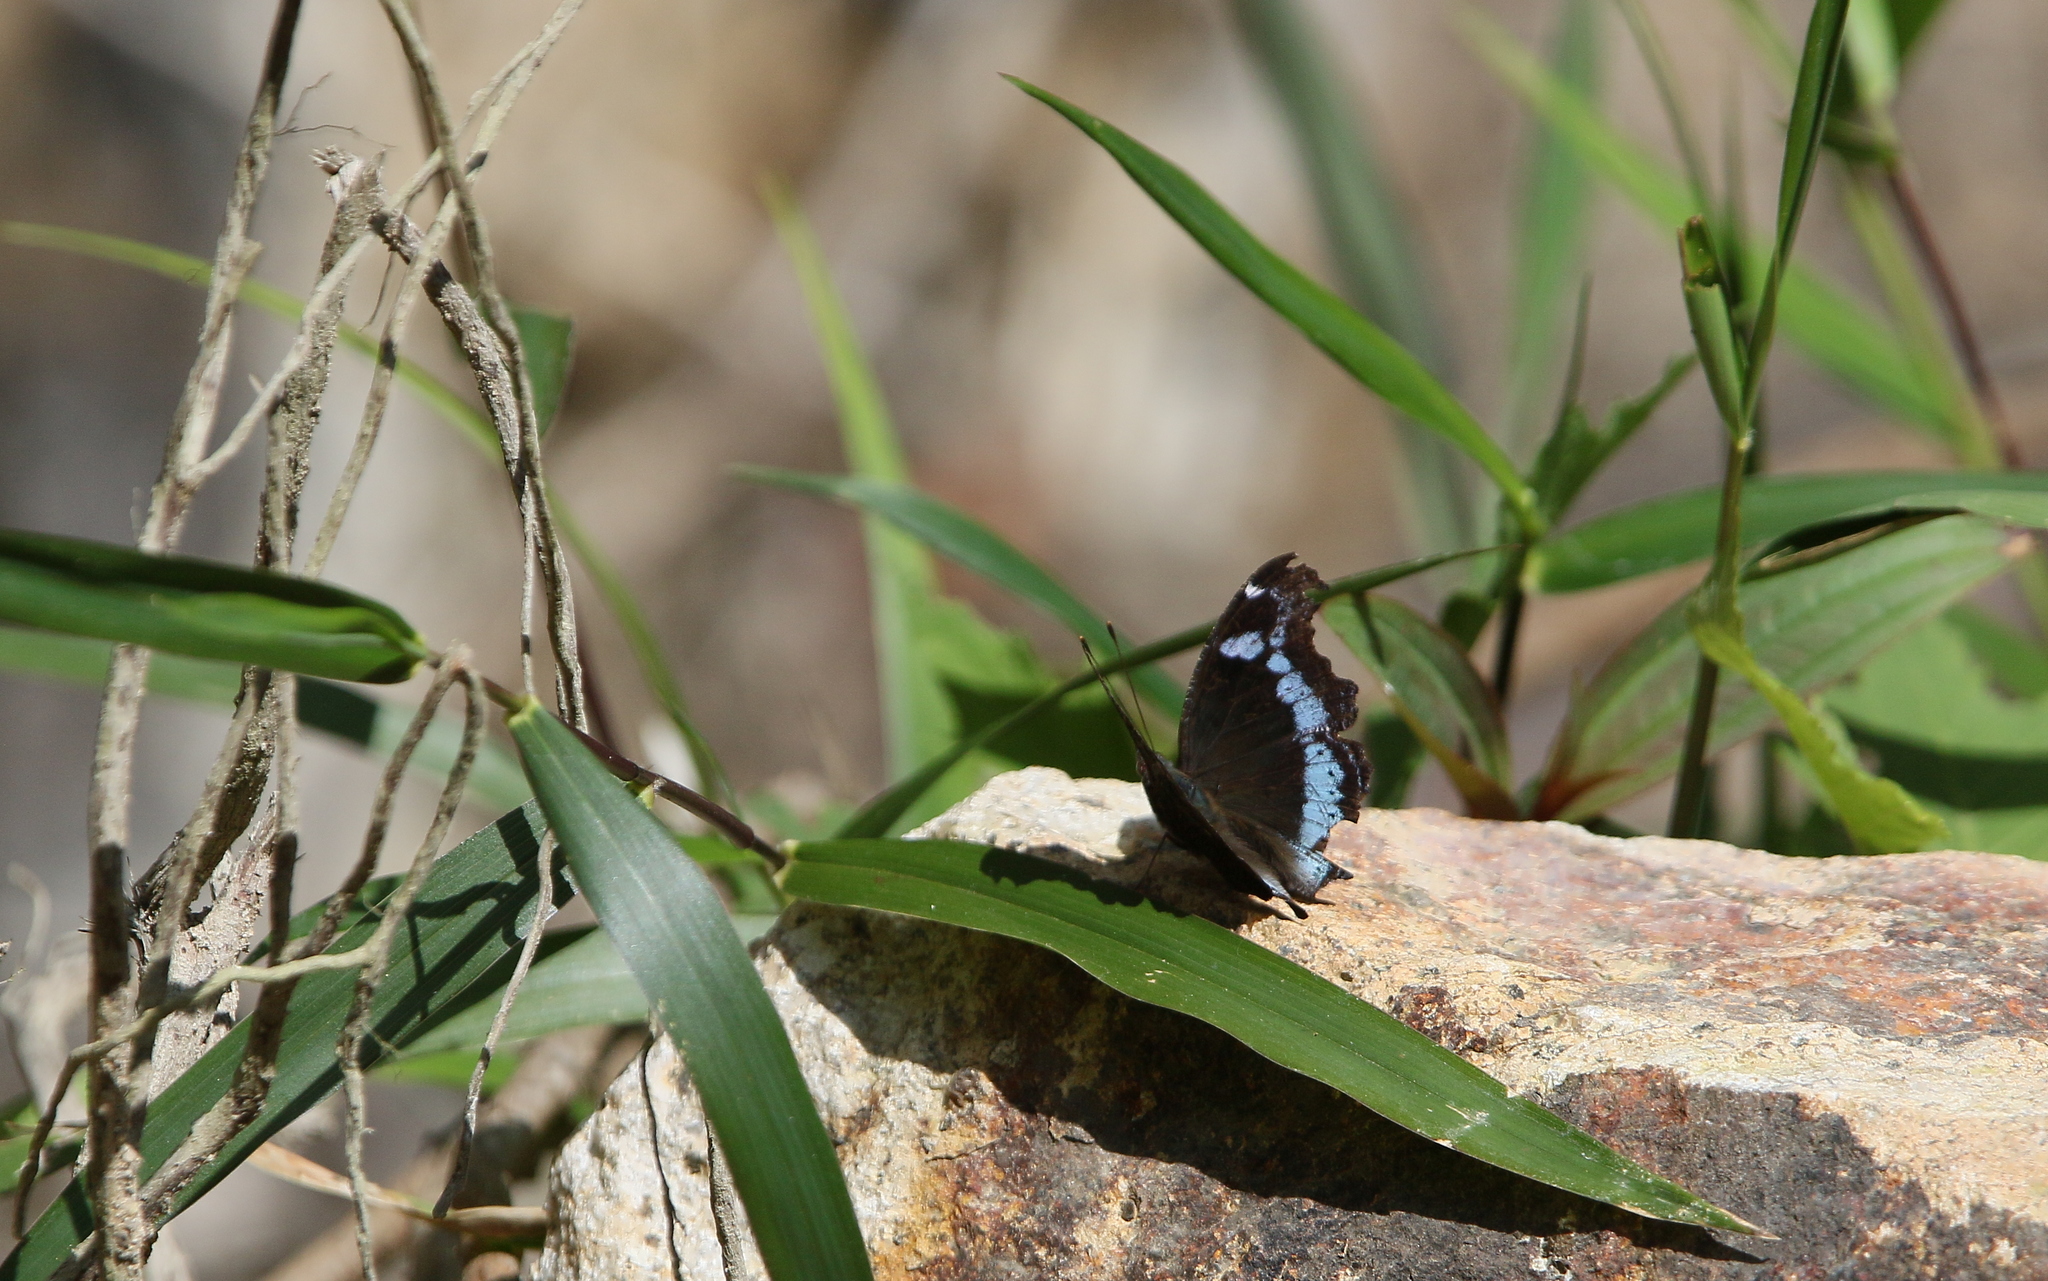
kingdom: Animalia
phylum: Arthropoda
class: Insecta
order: Lepidoptera
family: Nymphalidae
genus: Vanessa
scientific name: Vanessa Kaniska canace
